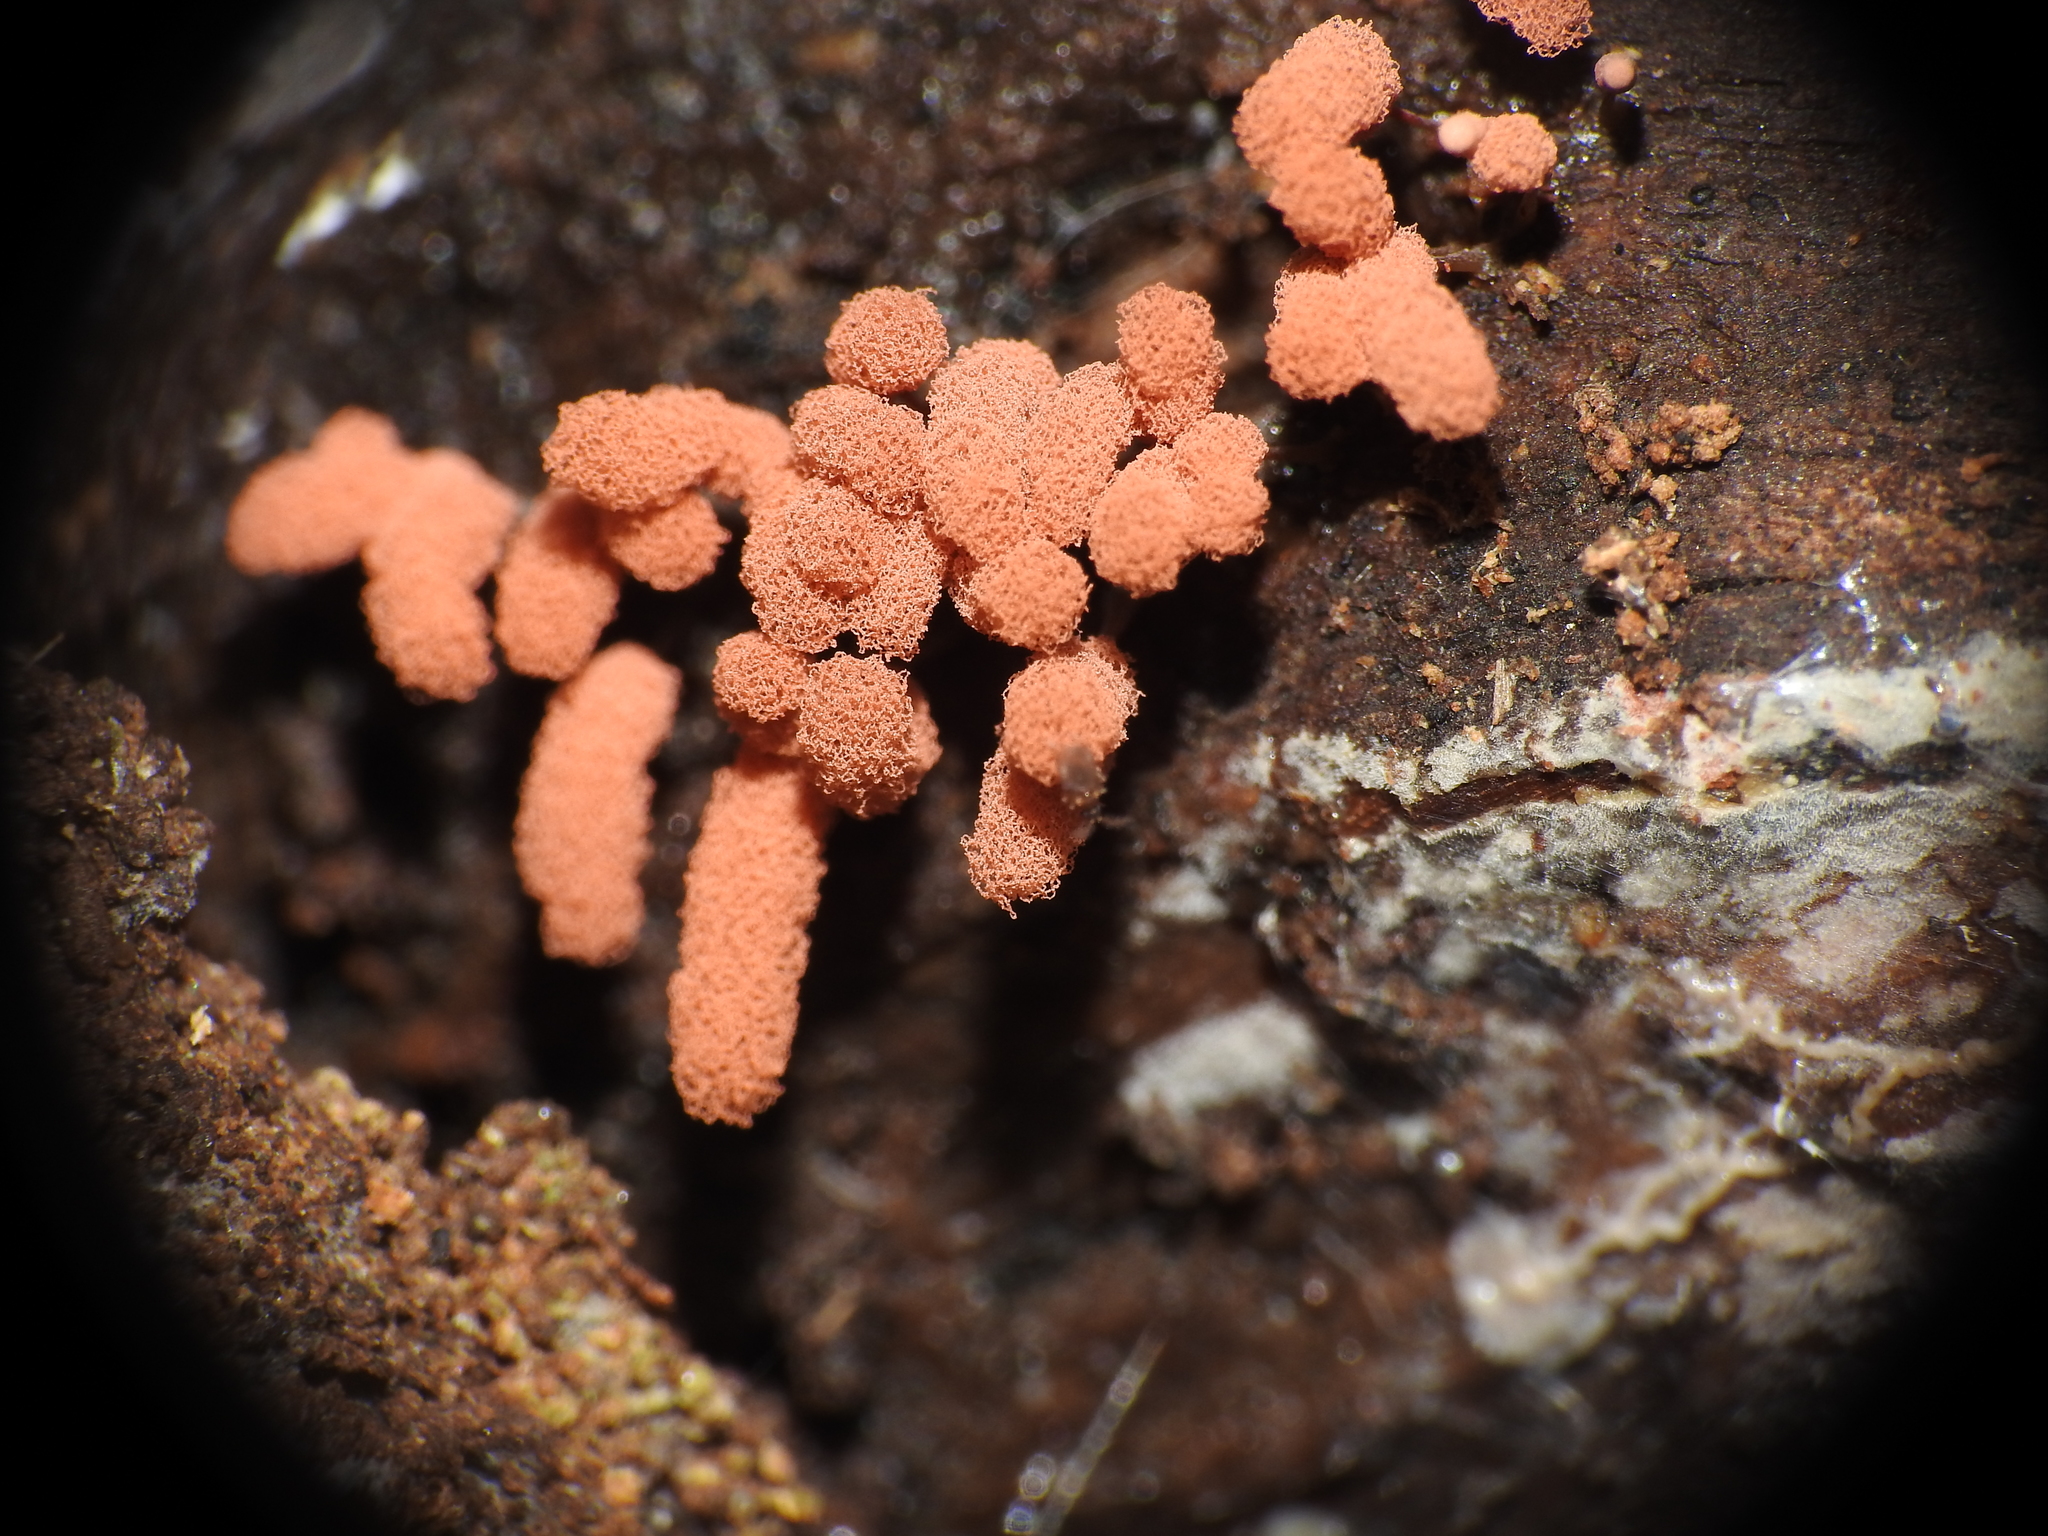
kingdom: Protozoa
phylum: Mycetozoa
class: Myxomycetes
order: Trichiales
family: Arcyriaceae
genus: Arcyria
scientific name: Arcyria denudata
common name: Carnival candy slime mold
